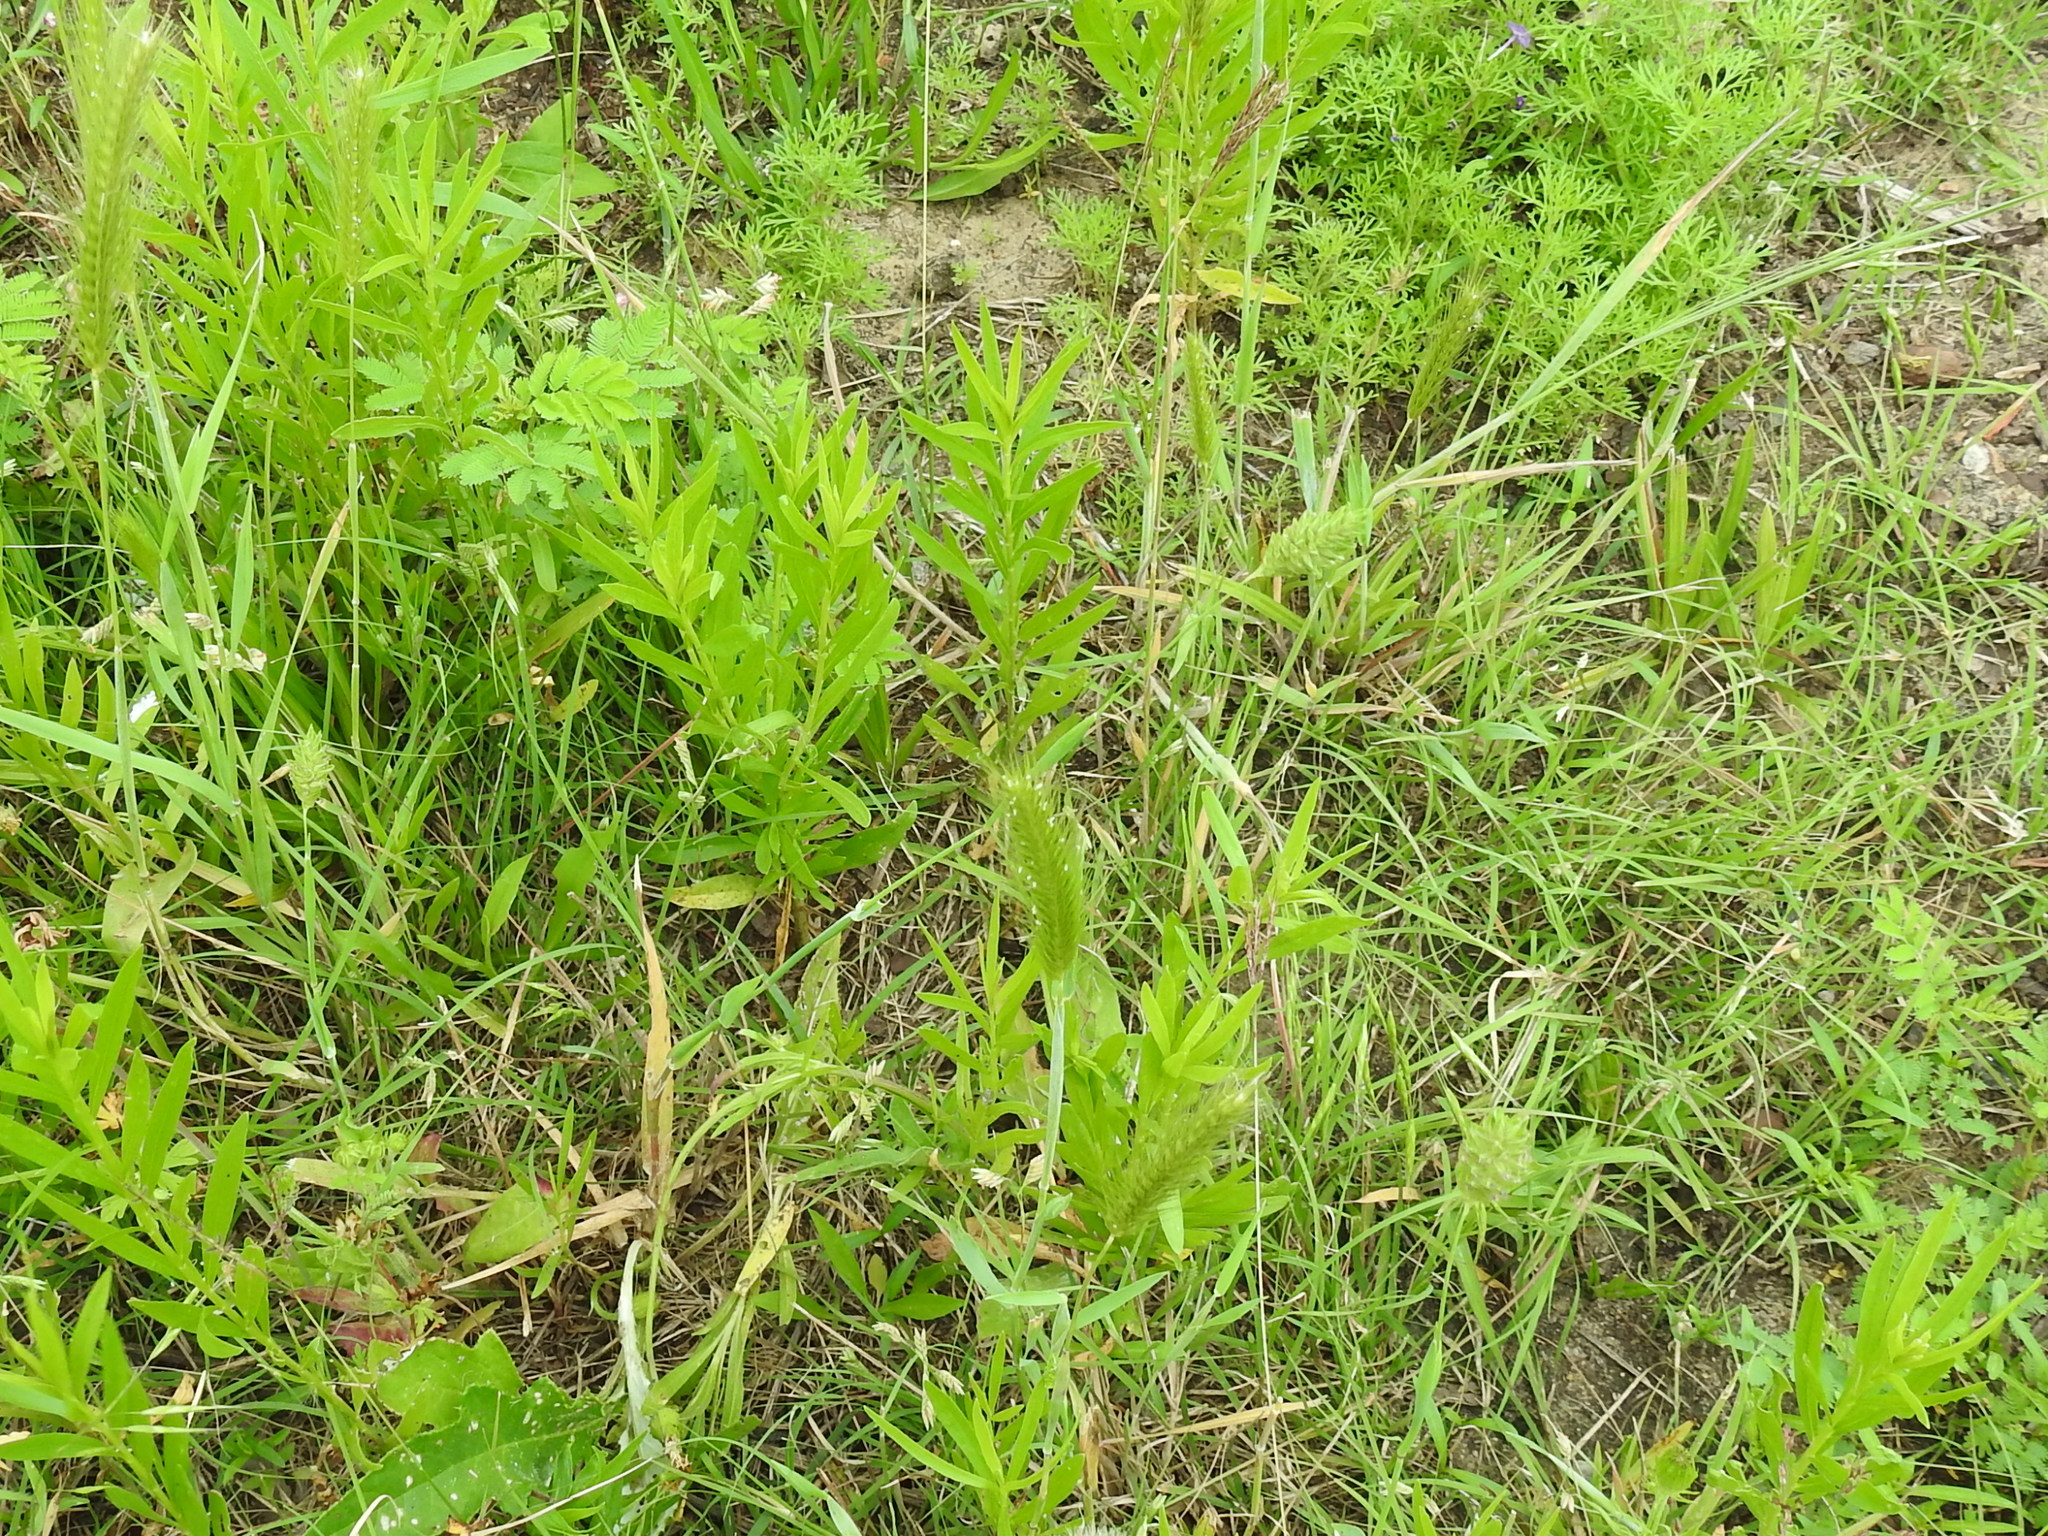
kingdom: Plantae
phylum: Tracheophyta
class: Liliopsida
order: Poales
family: Poaceae
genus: Phalaris
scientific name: Phalaris caroliniana
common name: May grass
